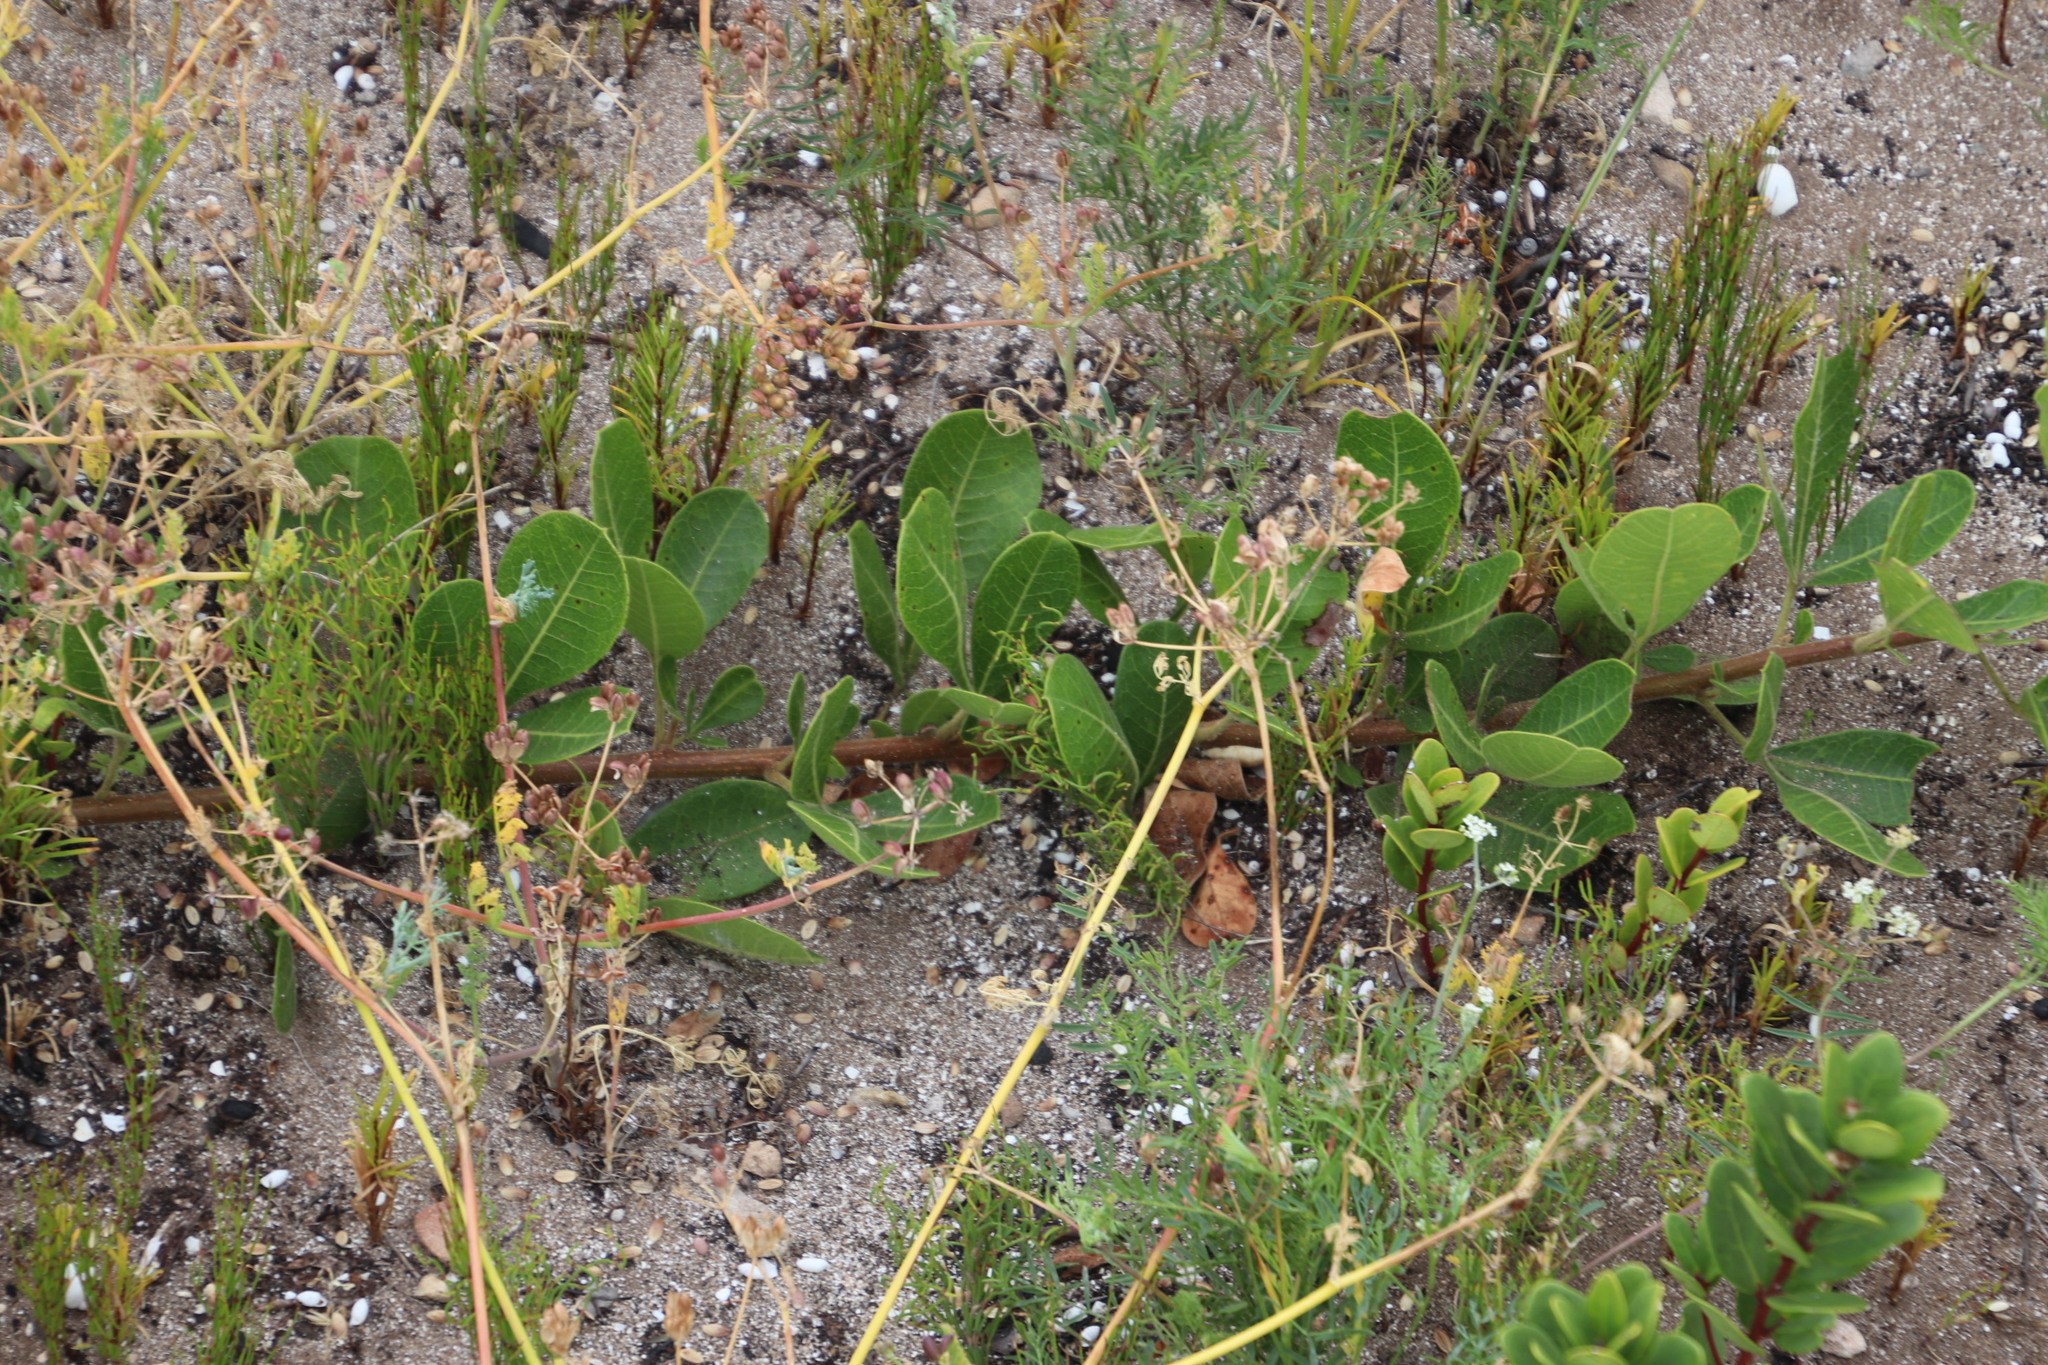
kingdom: Plantae
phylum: Tracheophyta
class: Magnoliopsida
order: Sapindales
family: Anacardiaceae
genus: Searsia
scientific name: Searsia laevigata
